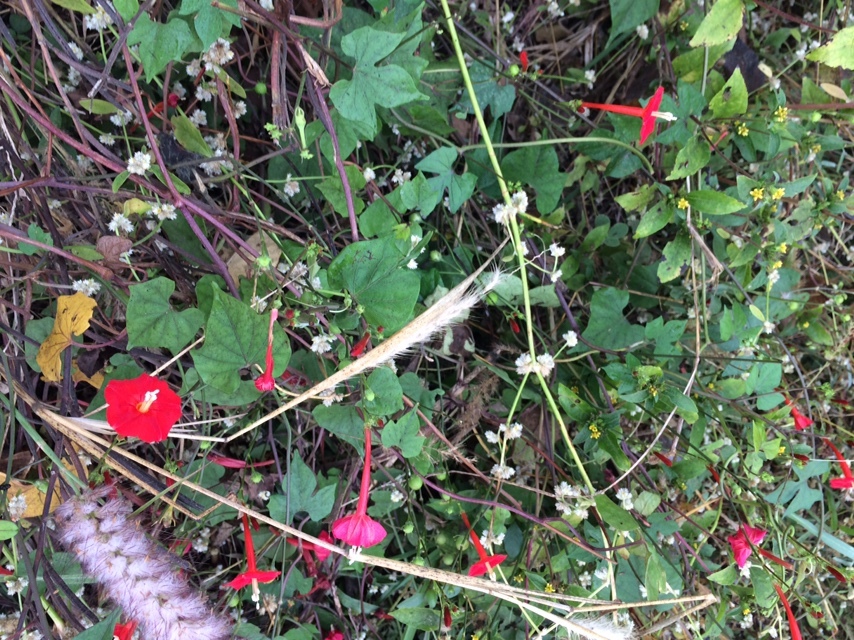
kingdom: Plantae
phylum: Tracheophyta
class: Magnoliopsida
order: Solanales
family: Convolvulaceae
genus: Ipomoea
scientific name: Ipomoea hederifolia
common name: Ivy-leaf morning-glory
